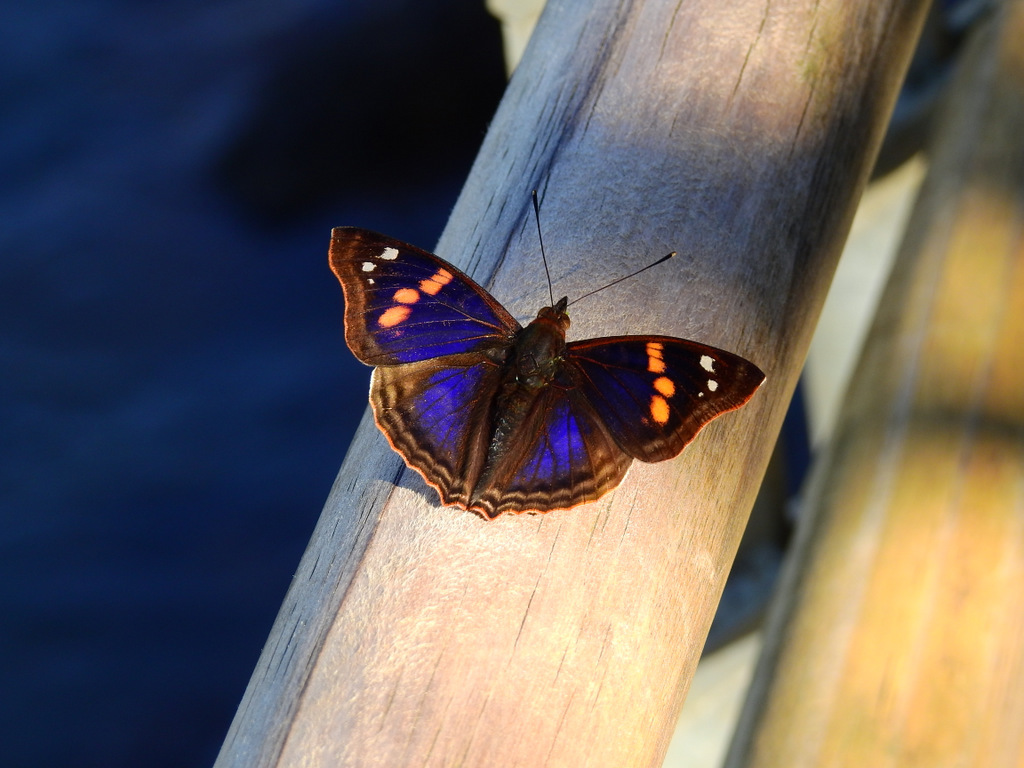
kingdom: Animalia
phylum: Arthropoda
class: Insecta
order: Lepidoptera
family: Nymphalidae
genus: Doxocopa
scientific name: Doxocopa agathina
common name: Agathina emperor
